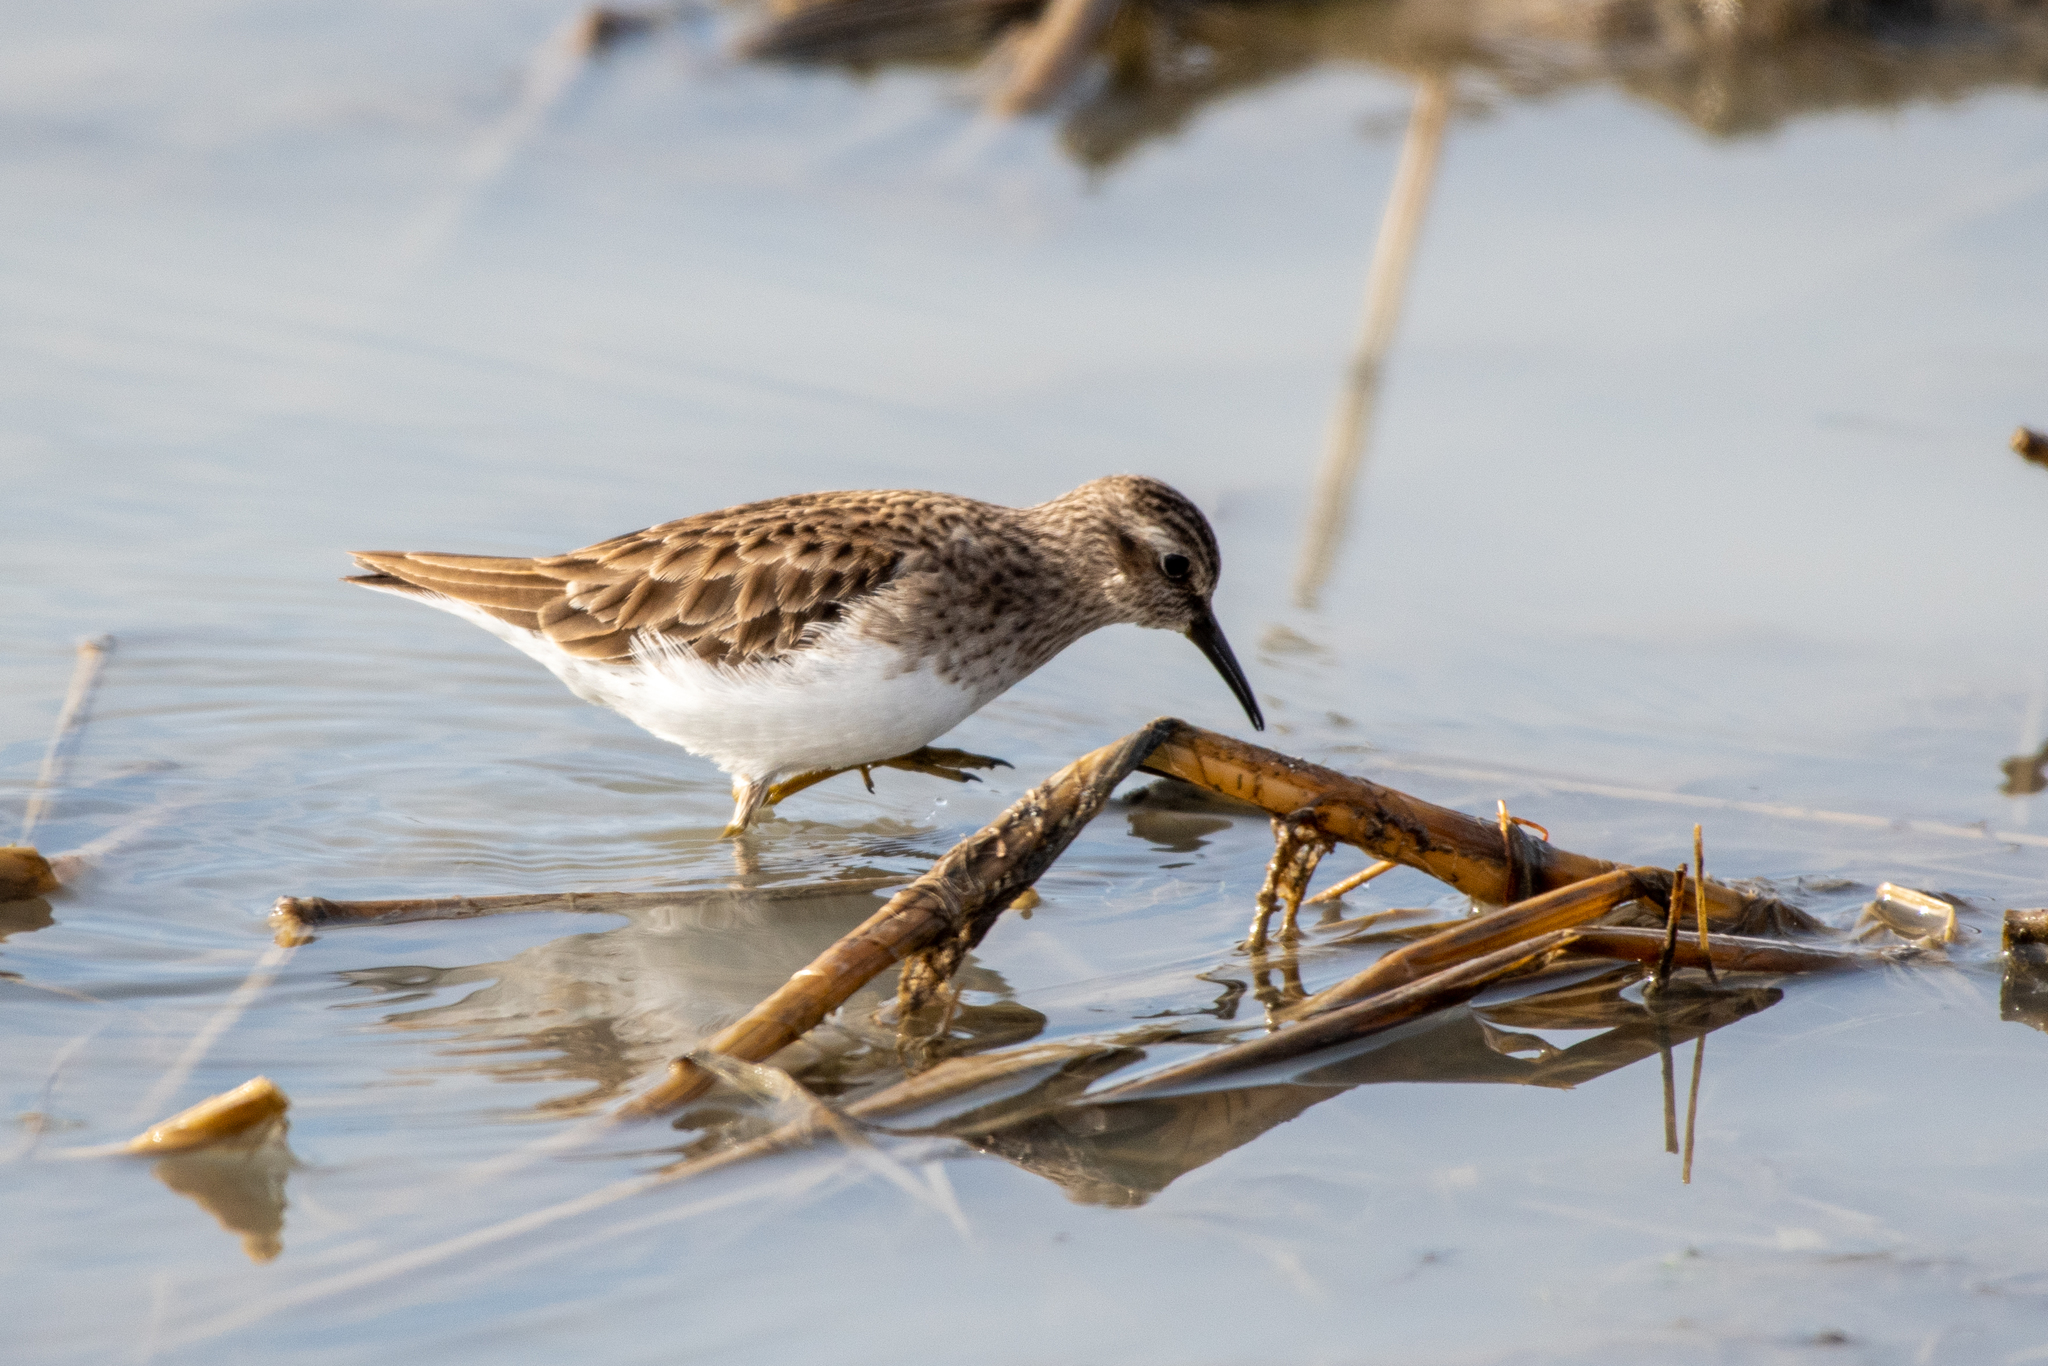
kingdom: Animalia
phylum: Chordata
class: Aves
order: Charadriiformes
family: Scolopacidae
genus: Calidris
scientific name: Calidris minutilla
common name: Least sandpiper
